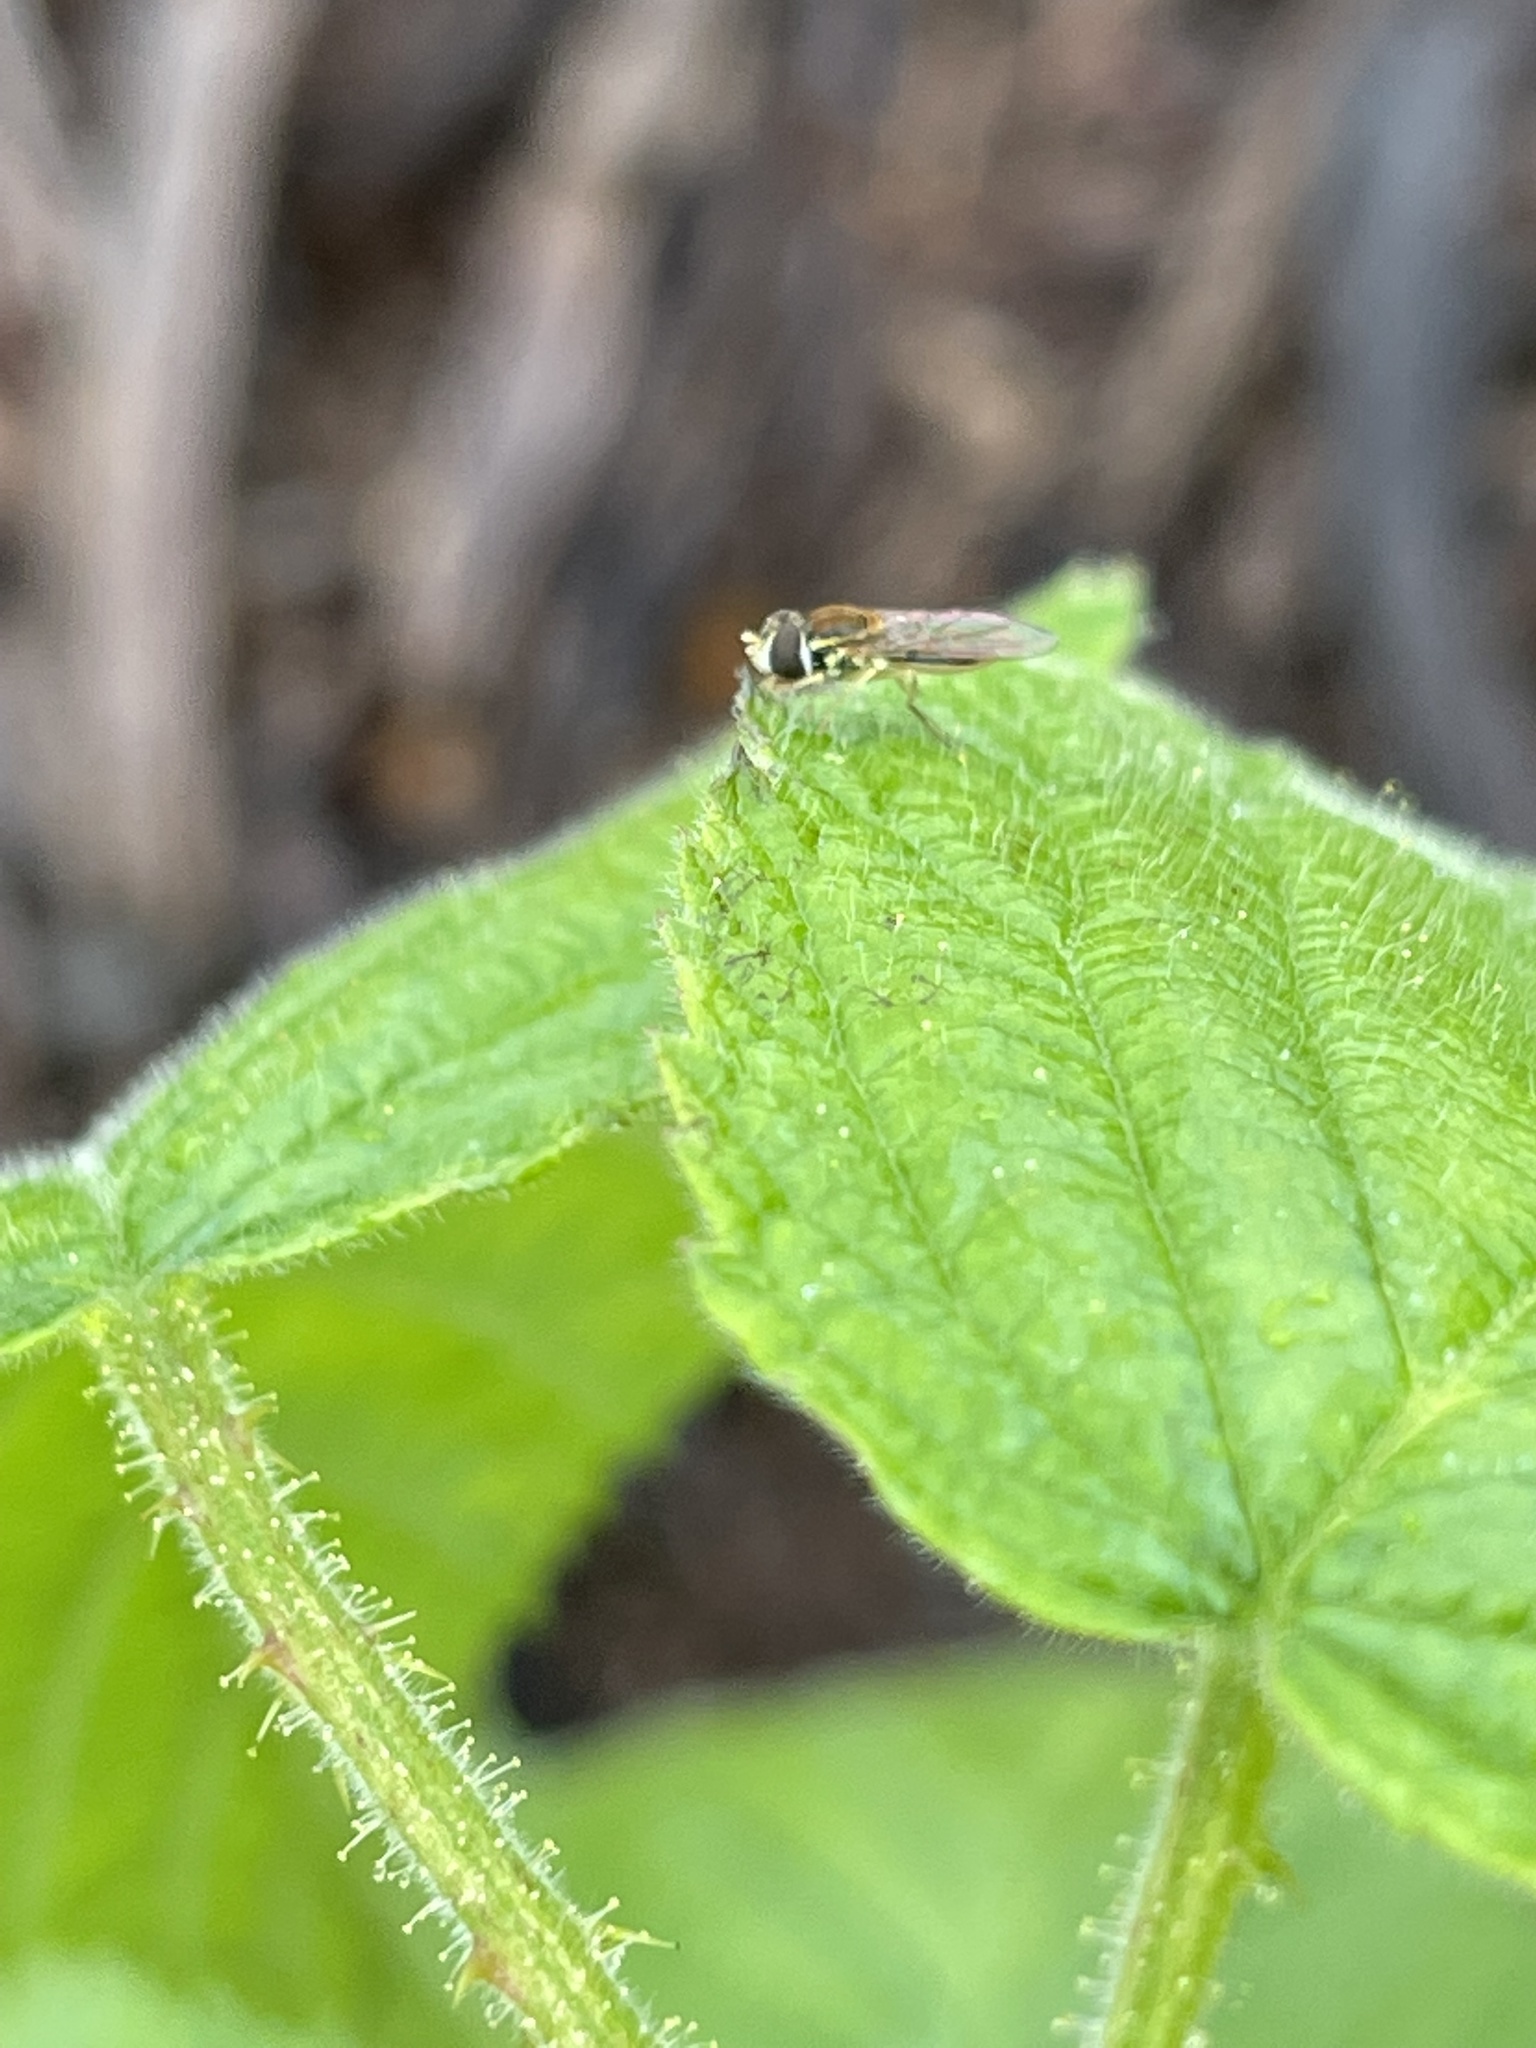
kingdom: Animalia
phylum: Arthropoda
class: Insecta
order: Diptera
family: Syrphidae
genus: Toxomerus
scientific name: Toxomerus marginatus
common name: Syrphid fly
